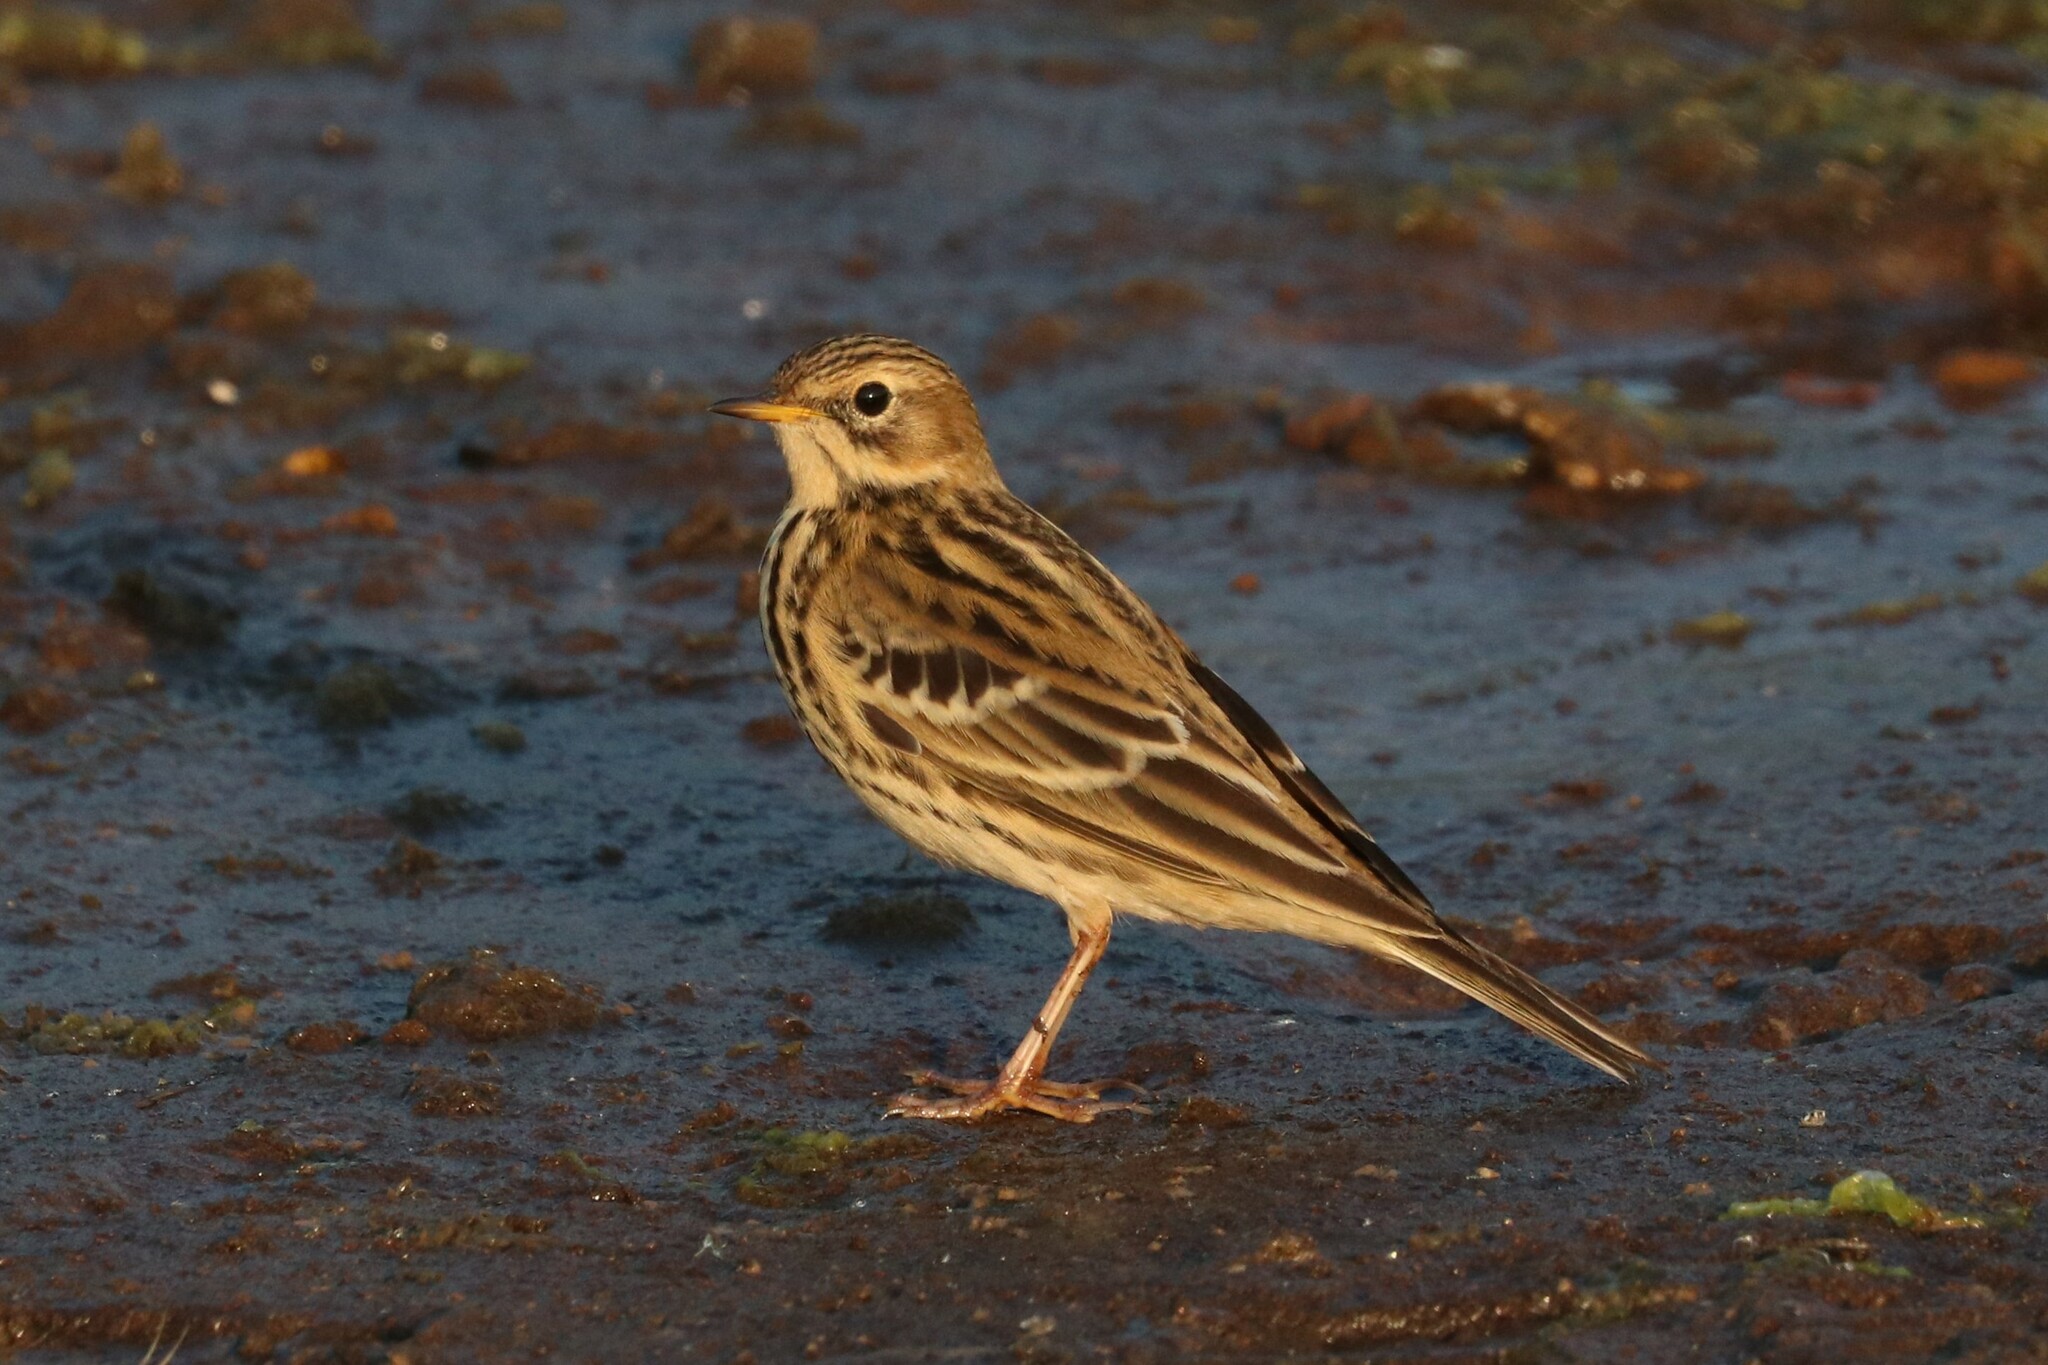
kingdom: Animalia
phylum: Chordata
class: Aves
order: Passeriformes
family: Motacillidae
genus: Anthus
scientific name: Anthus cervinus
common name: Red-throated pipit
